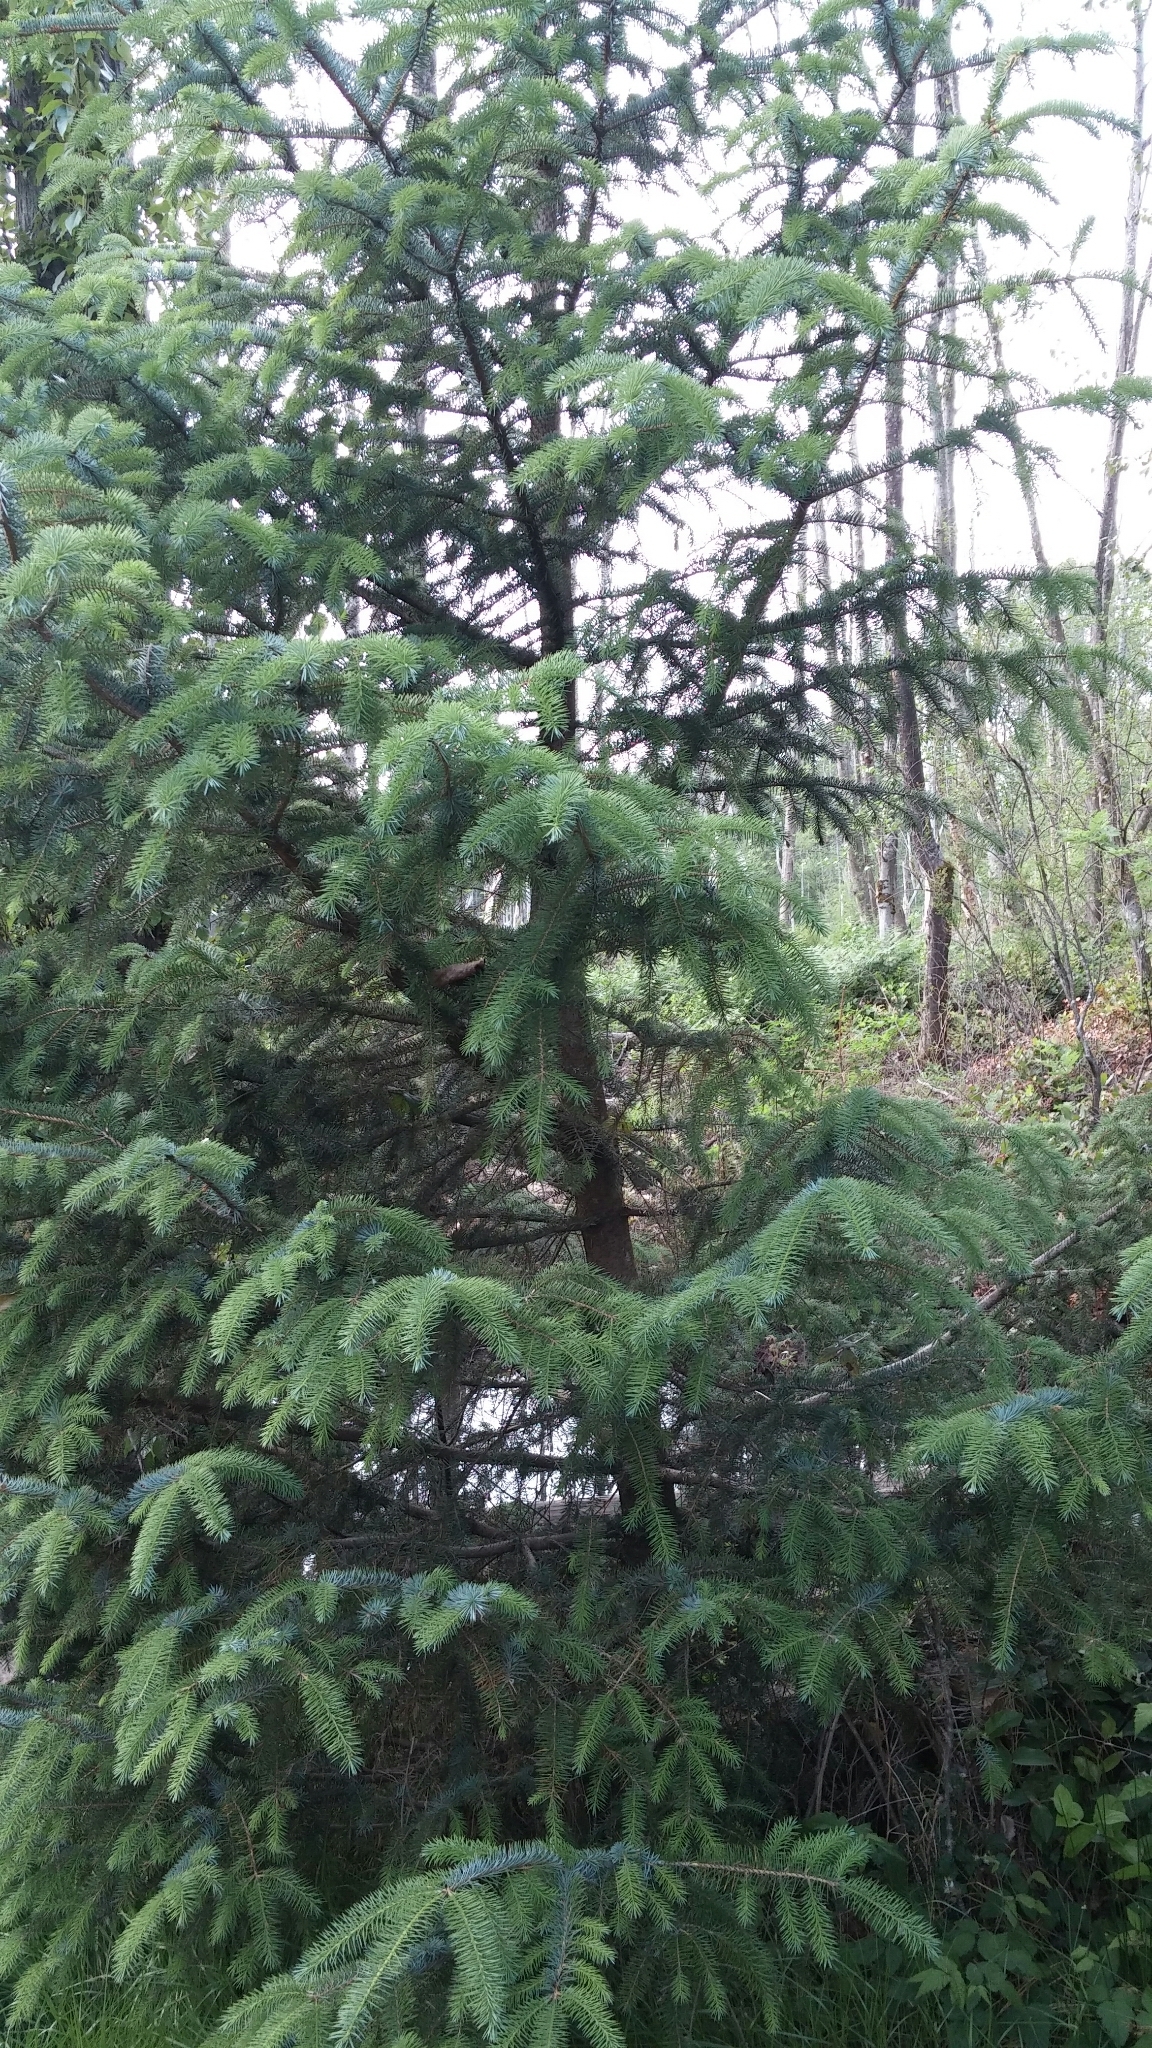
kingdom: Plantae
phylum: Tracheophyta
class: Pinopsida
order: Pinales
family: Pinaceae
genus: Picea
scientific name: Picea sitchensis
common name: Sitka spruce
